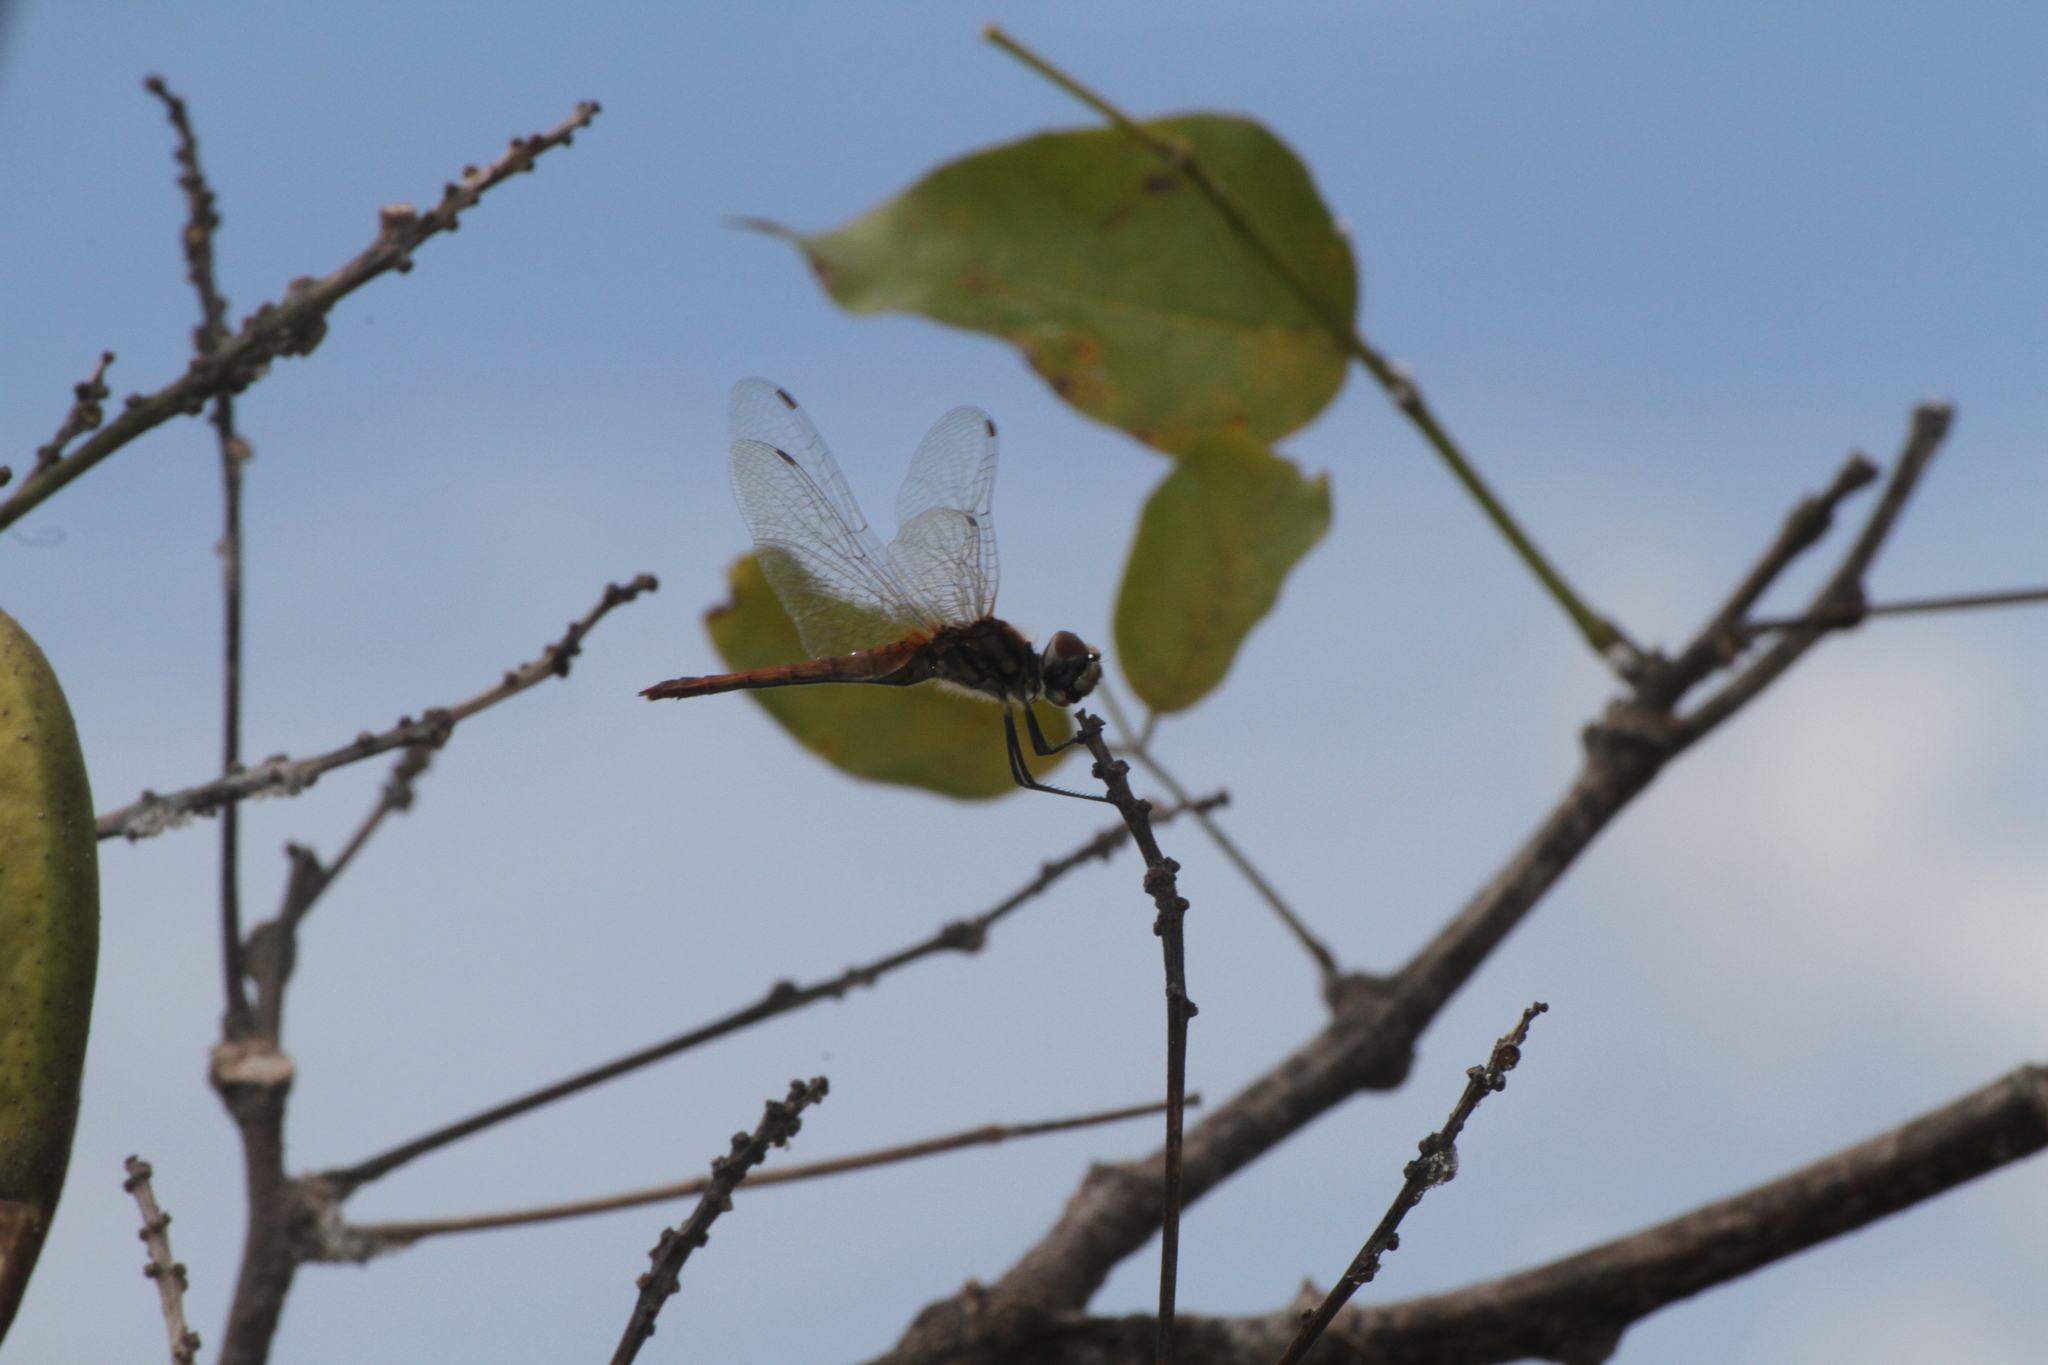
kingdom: Animalia
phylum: Arthropoda
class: Insecta
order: Odonata
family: Libellulidae
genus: Macrodiplax
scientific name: Macrodiplax cora
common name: Coastal glider
